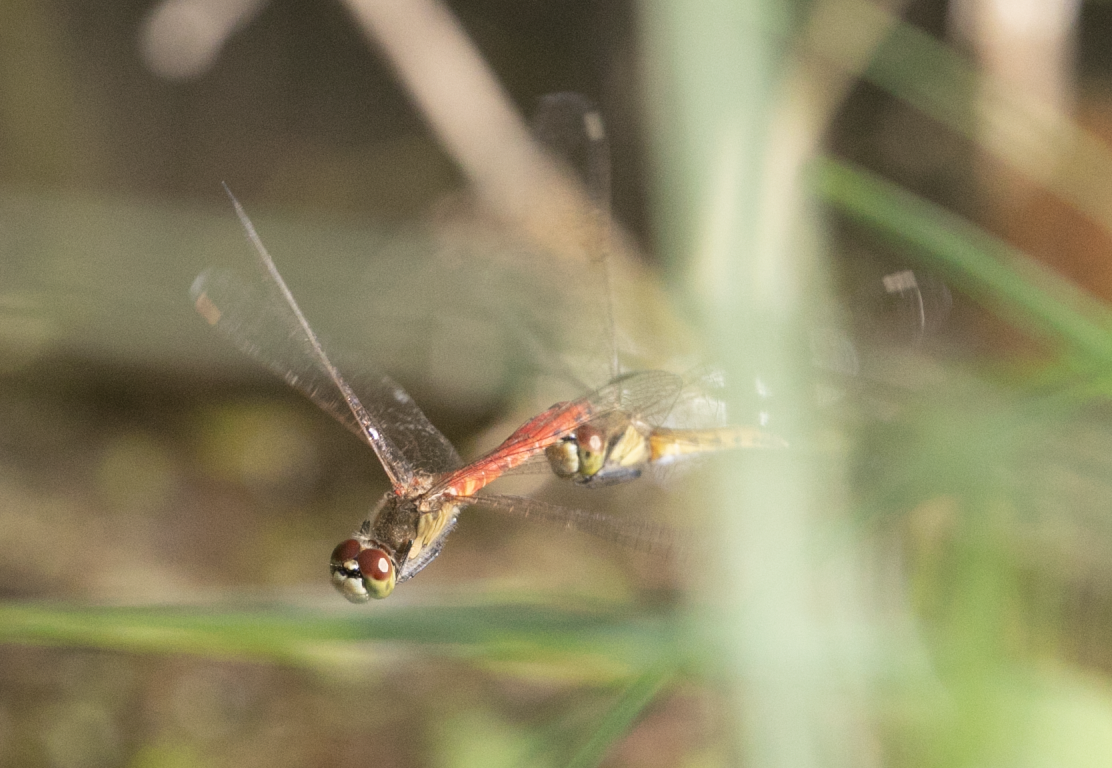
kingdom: Animalia
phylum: Arthropoda
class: Insecta
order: Odonata
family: Libellulidae
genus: Sympetrum
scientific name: Sympetrum depressiusculum
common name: Spotted darter
